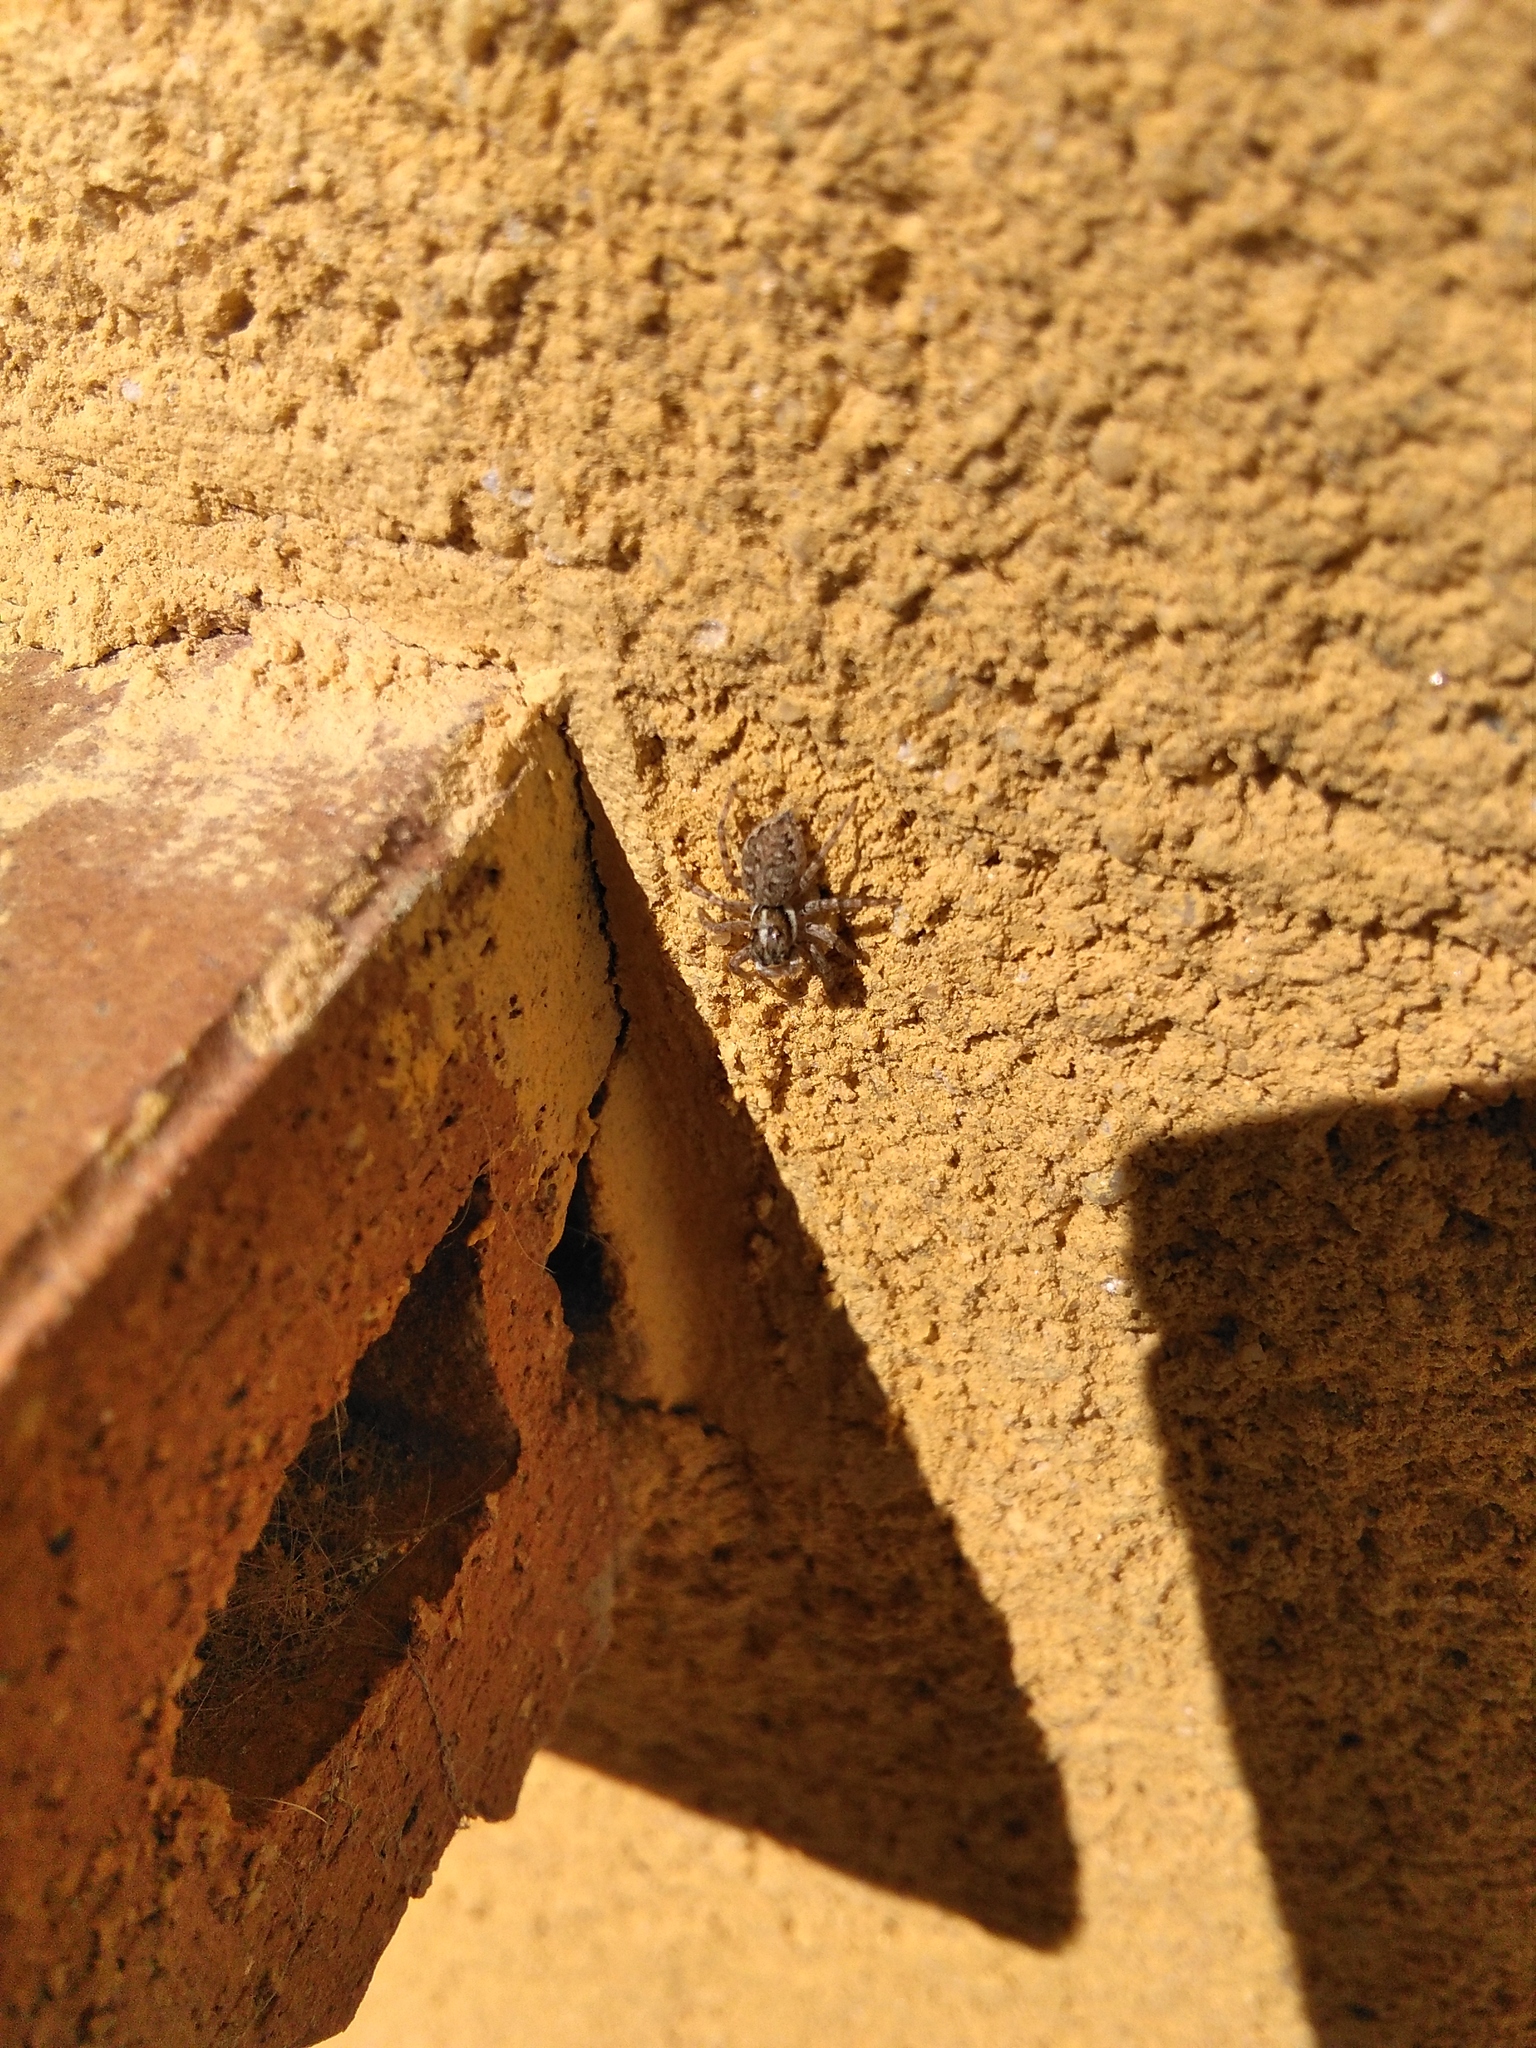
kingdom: Animalia
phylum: Arthropoda
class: Arachnida
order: Araneae
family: Salticidae
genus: Menemerus
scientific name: Menemerus semilimbatus
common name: Jumping spider
